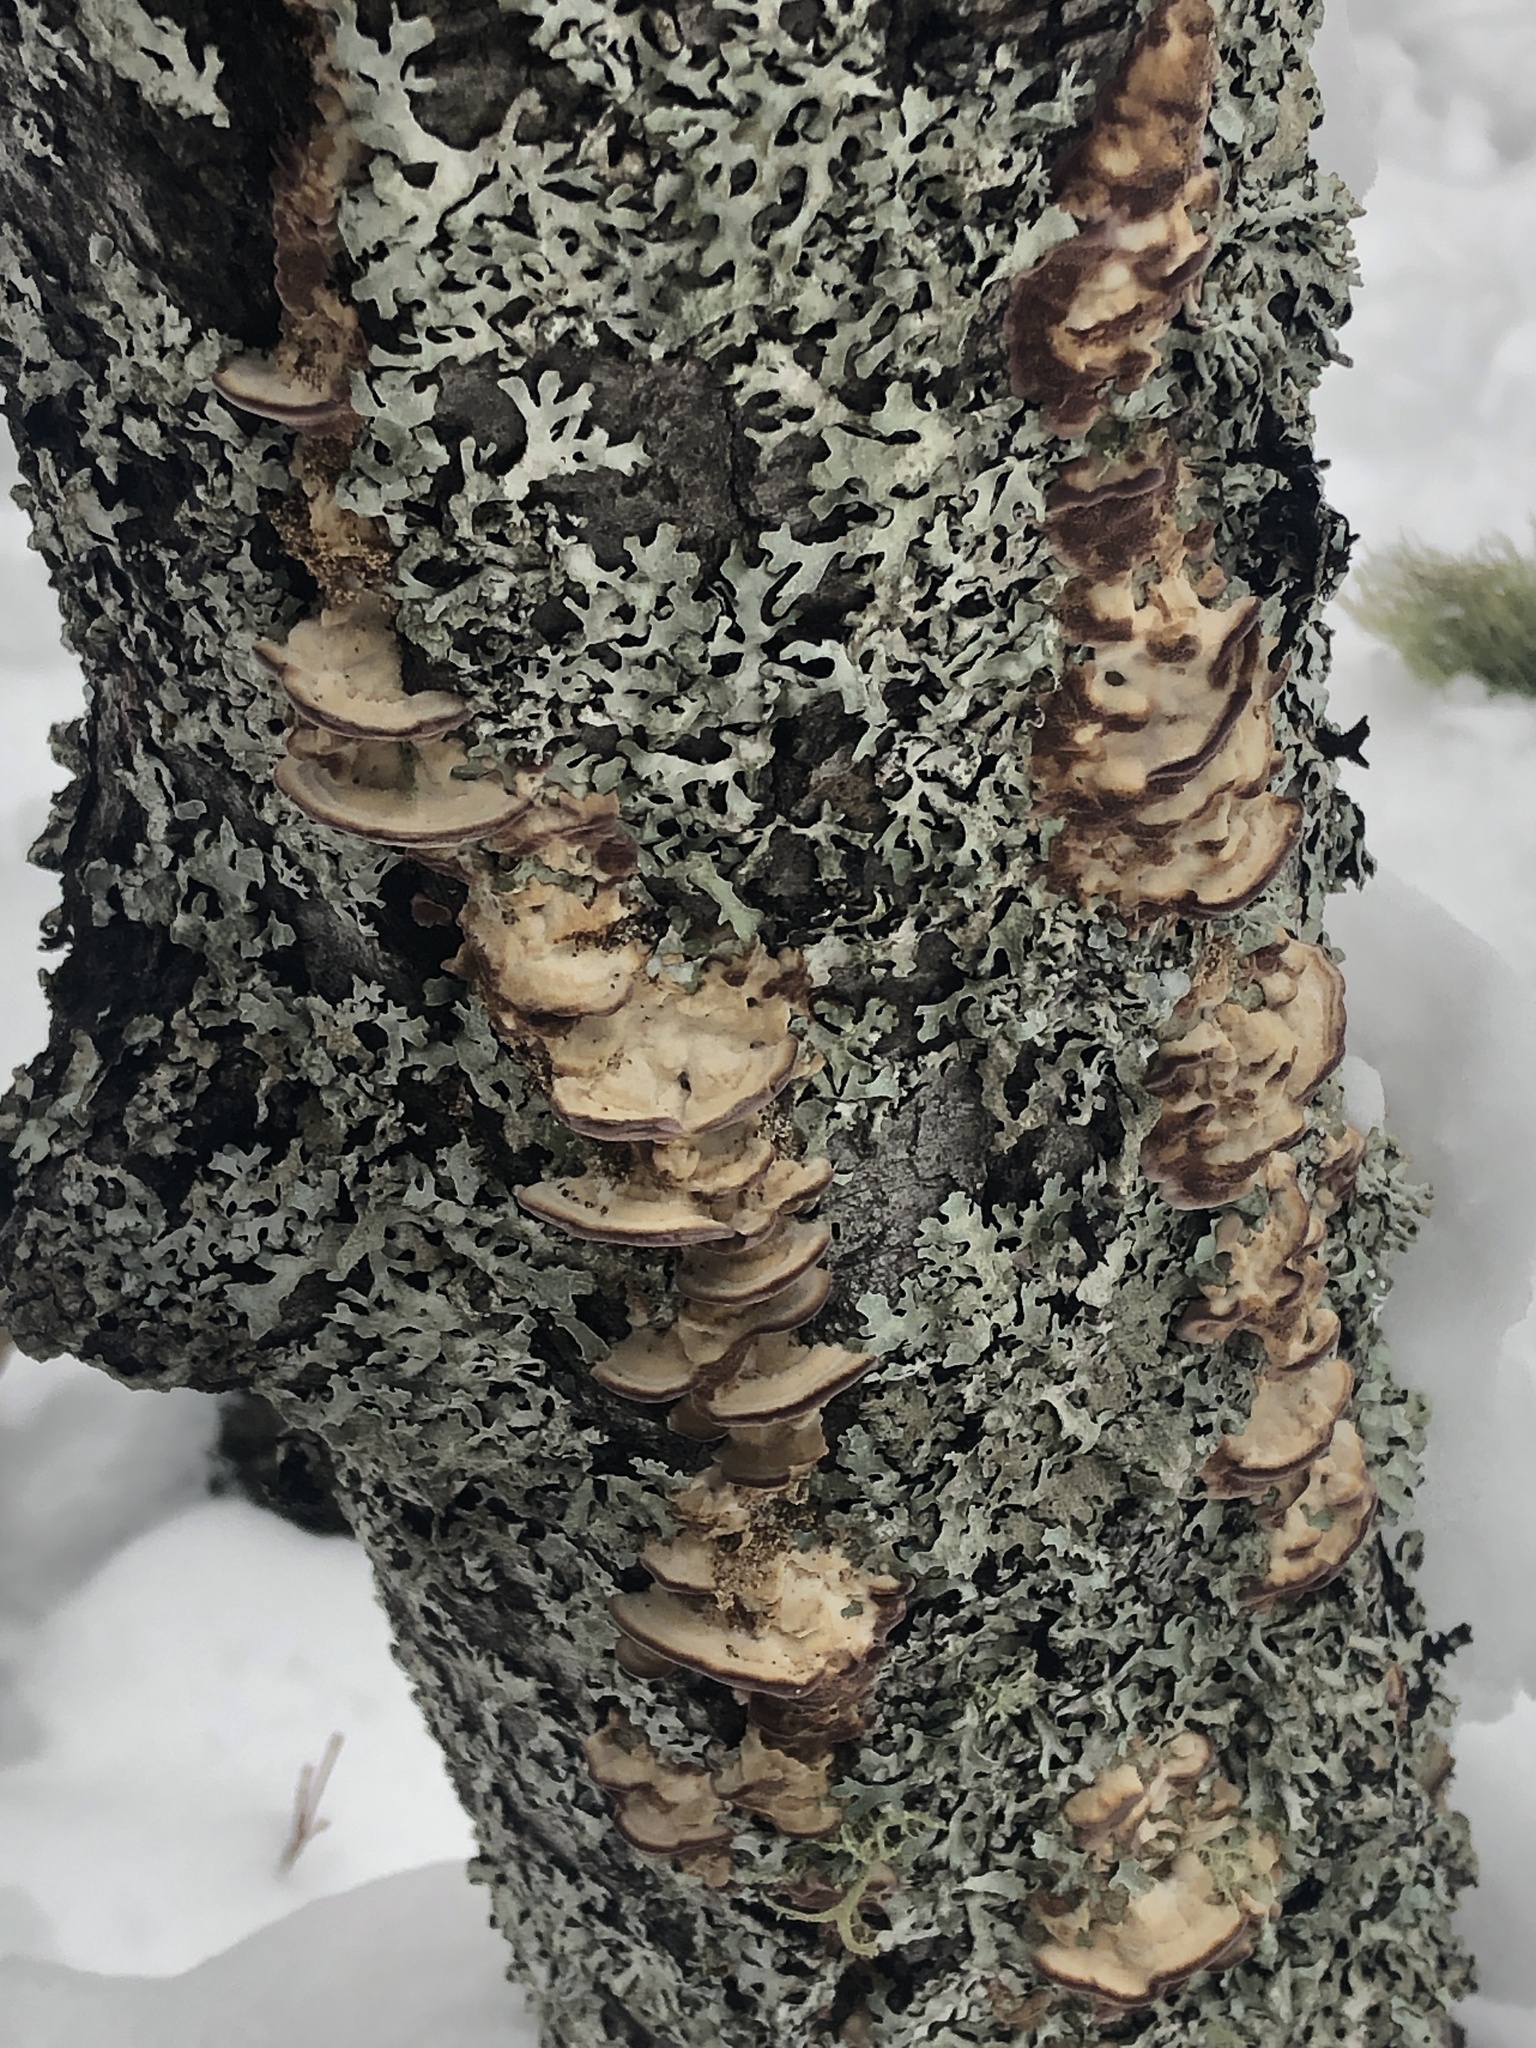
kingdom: Fungi
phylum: Basidiomycota
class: Agaricomycetes
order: Hymenochaetales
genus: Trichaptum
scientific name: Trichaptum subchartaceum
